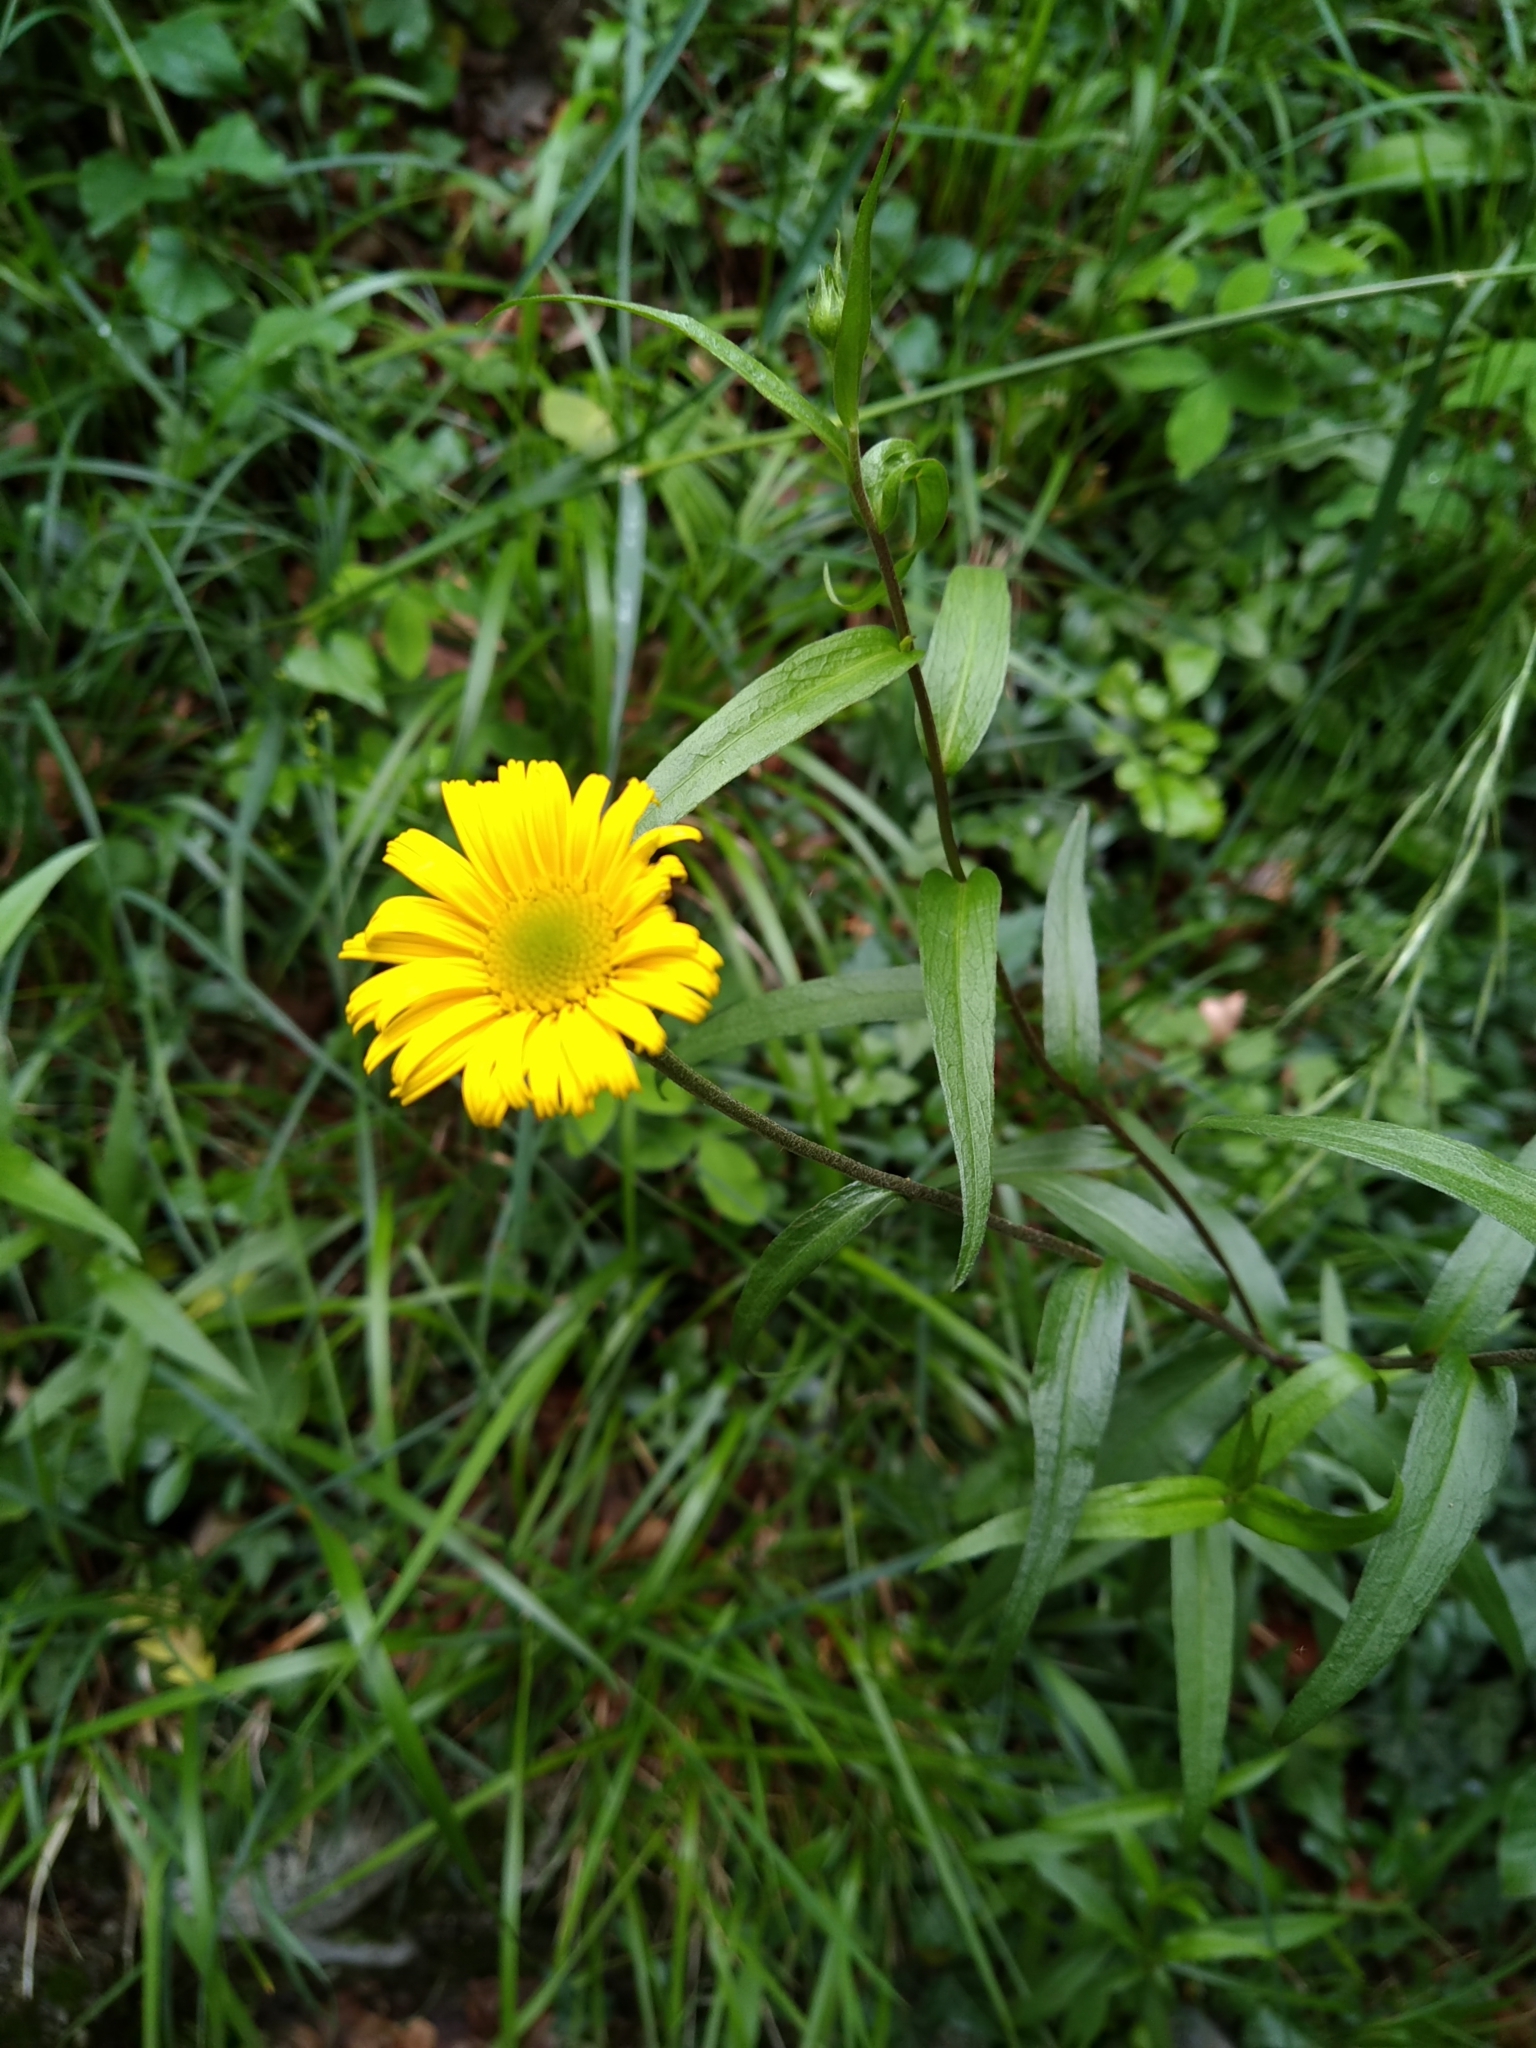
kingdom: Plantae
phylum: Tracheophyta
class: Magnoliopsida
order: Asterales
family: Asteraceae
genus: Buphthalmum
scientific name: Buphthalmum salicifolium
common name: Willow-leaved yellow-oxeye
